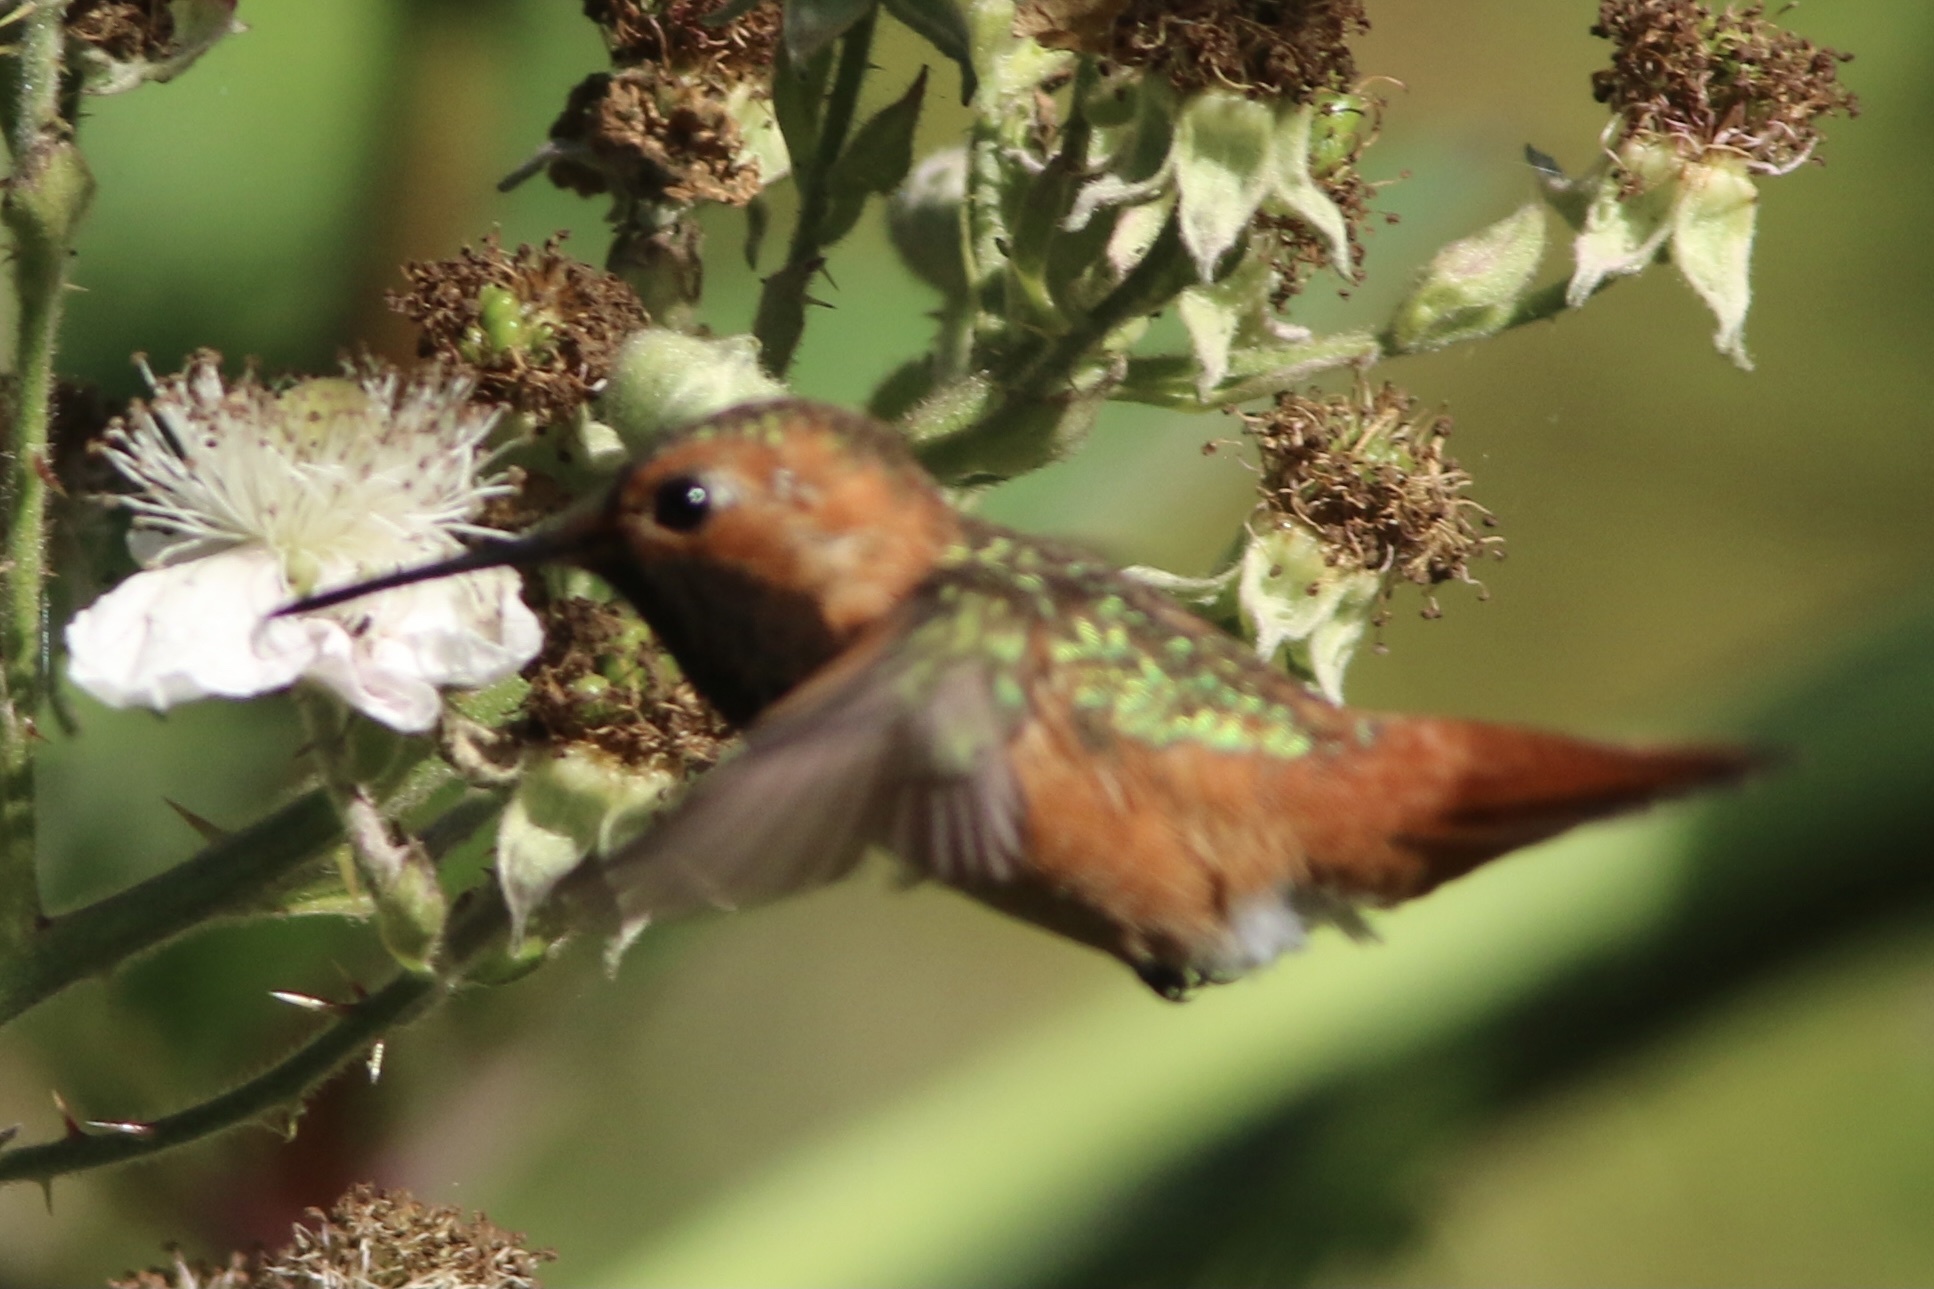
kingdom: Animalia
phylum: Chordata
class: Aves
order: Apodiformes
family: Trochilidae
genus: Selasphorus
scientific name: Selasphorus sasin
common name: Allen's hummingbird
